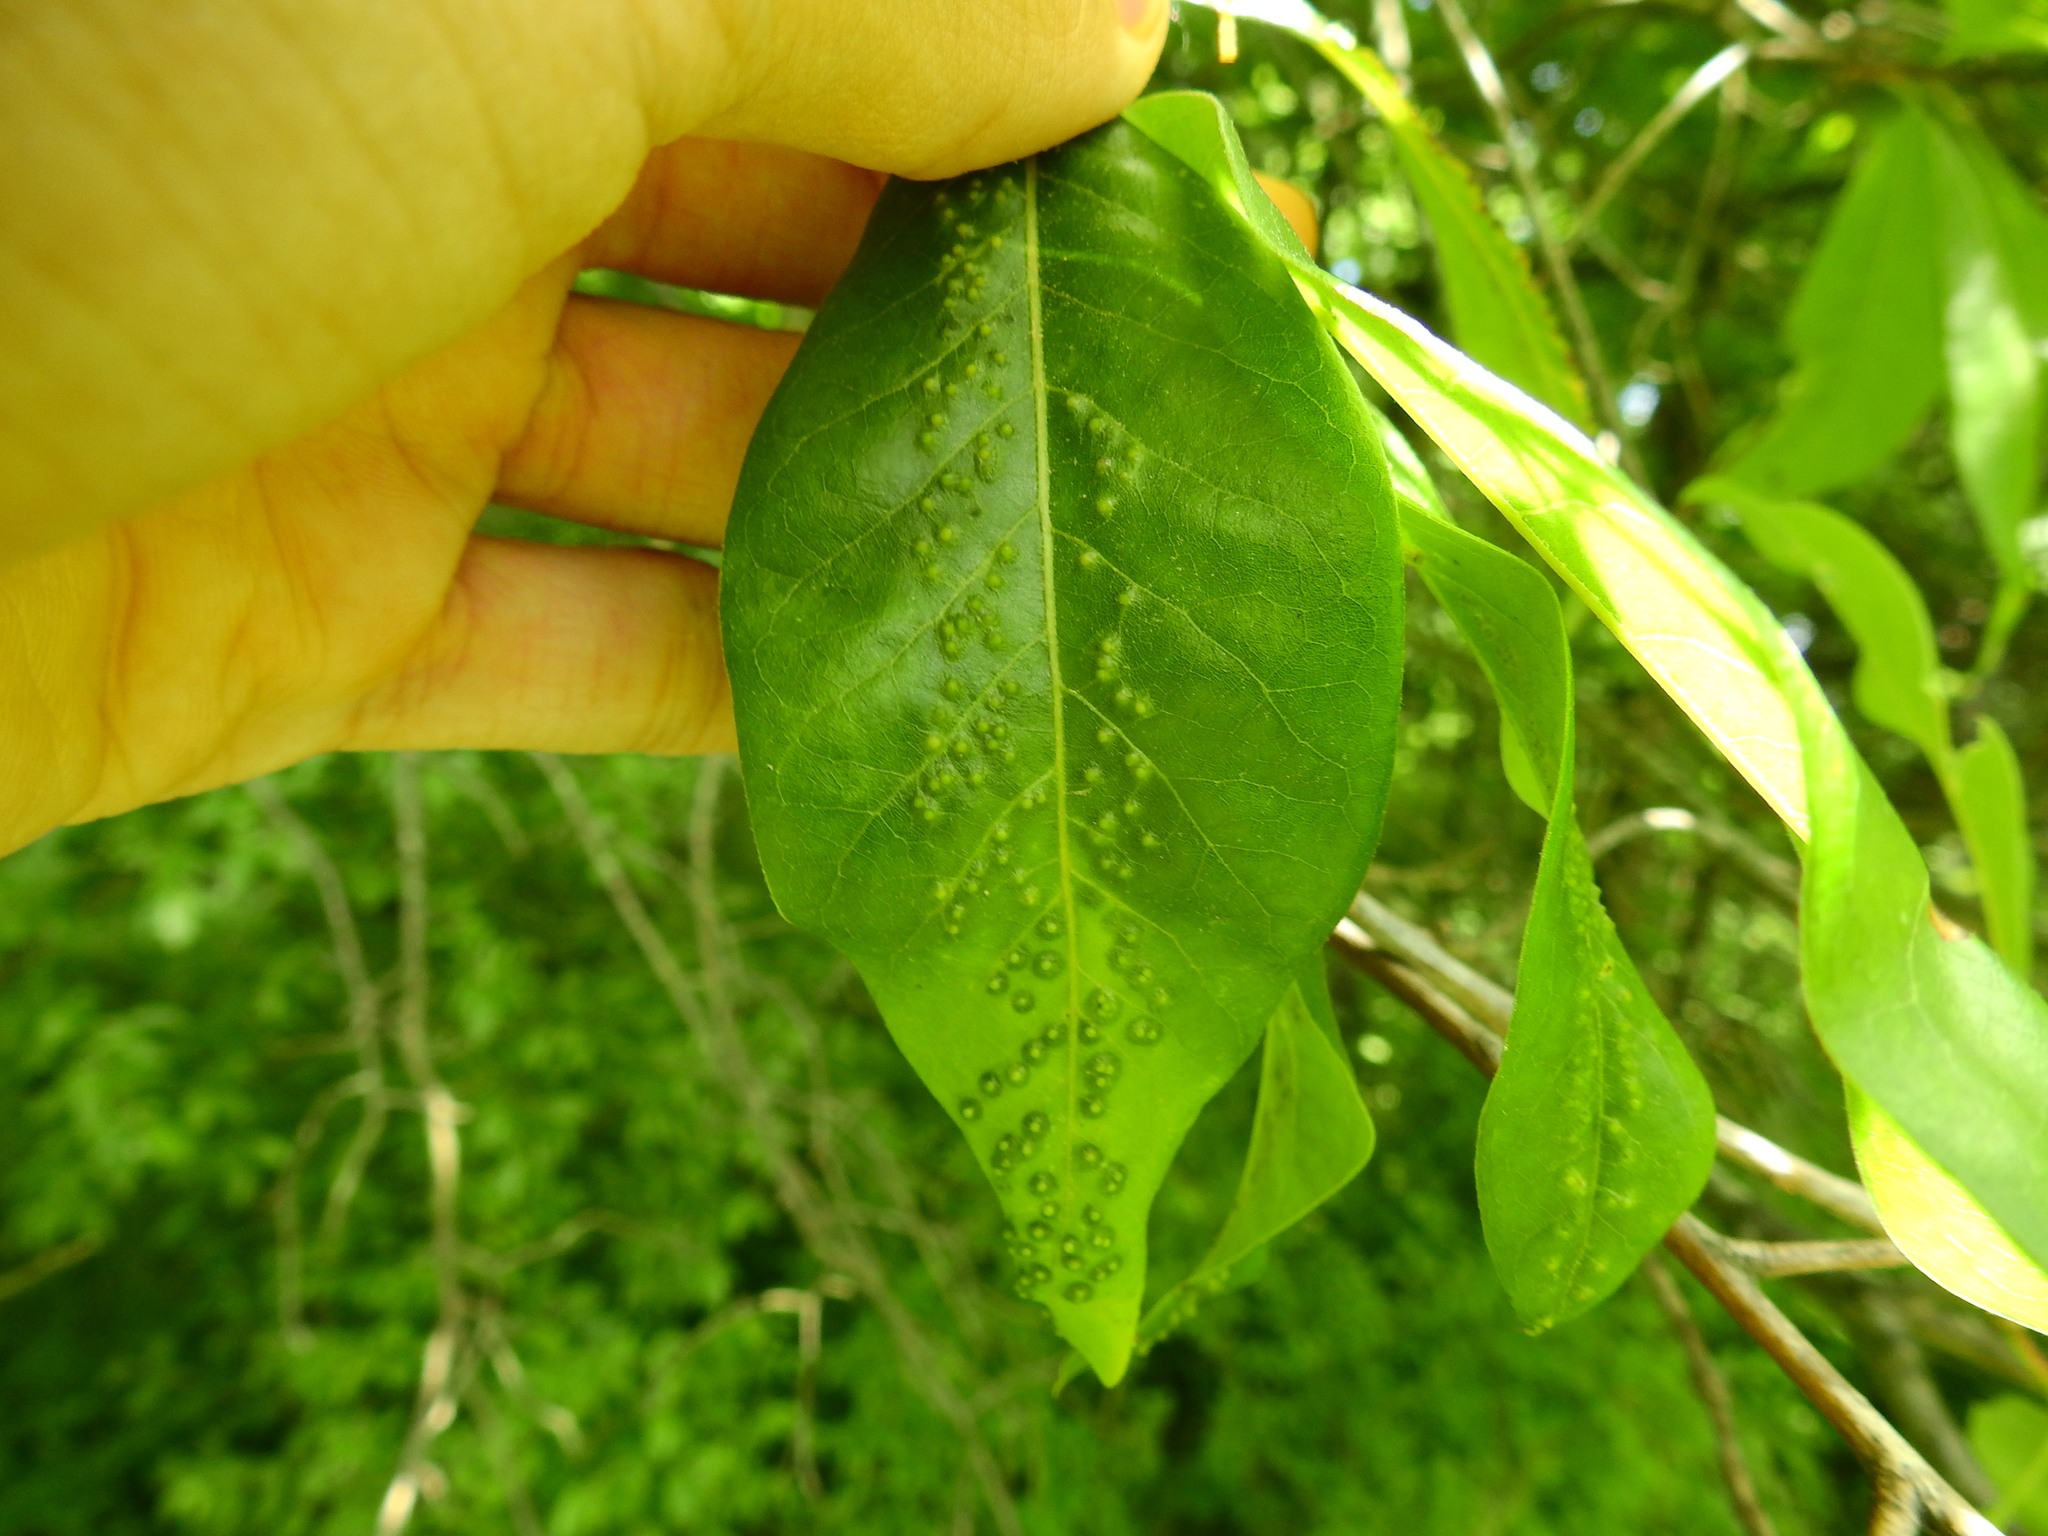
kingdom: Animalia
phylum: Arthropoda
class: Insecta
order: Hymenoptera
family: Cynipidae
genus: Callirhytis
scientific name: Callirhytis
